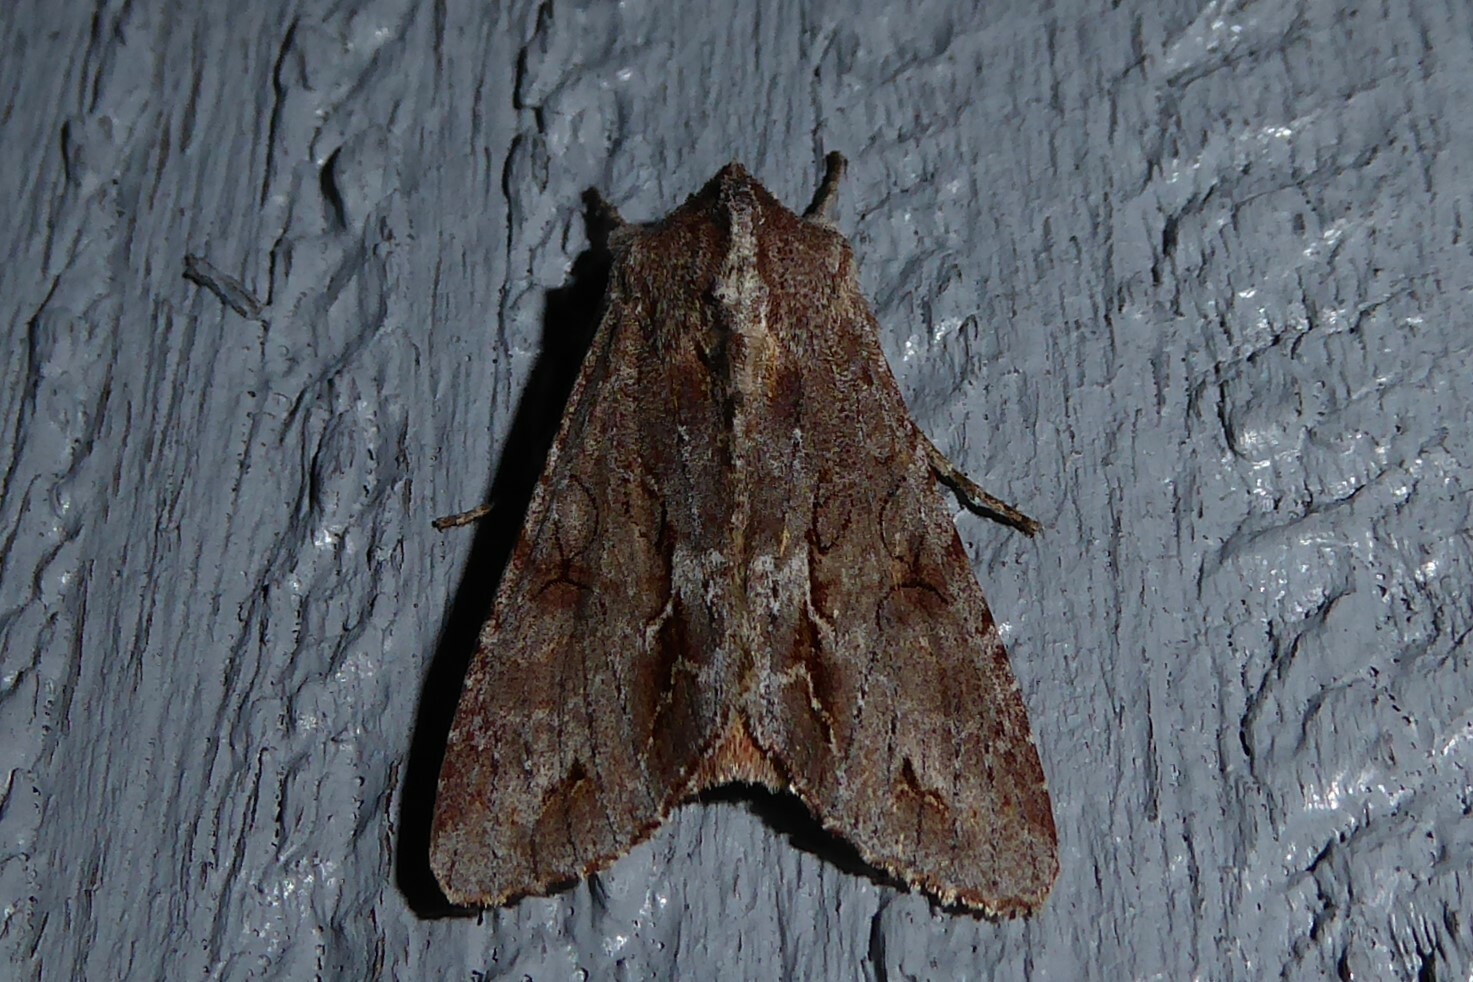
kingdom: Animalia
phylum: Arthropoda
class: Insecta
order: Lepidoptera
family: Noctuidae
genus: Ichneutica
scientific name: Ichneutica
